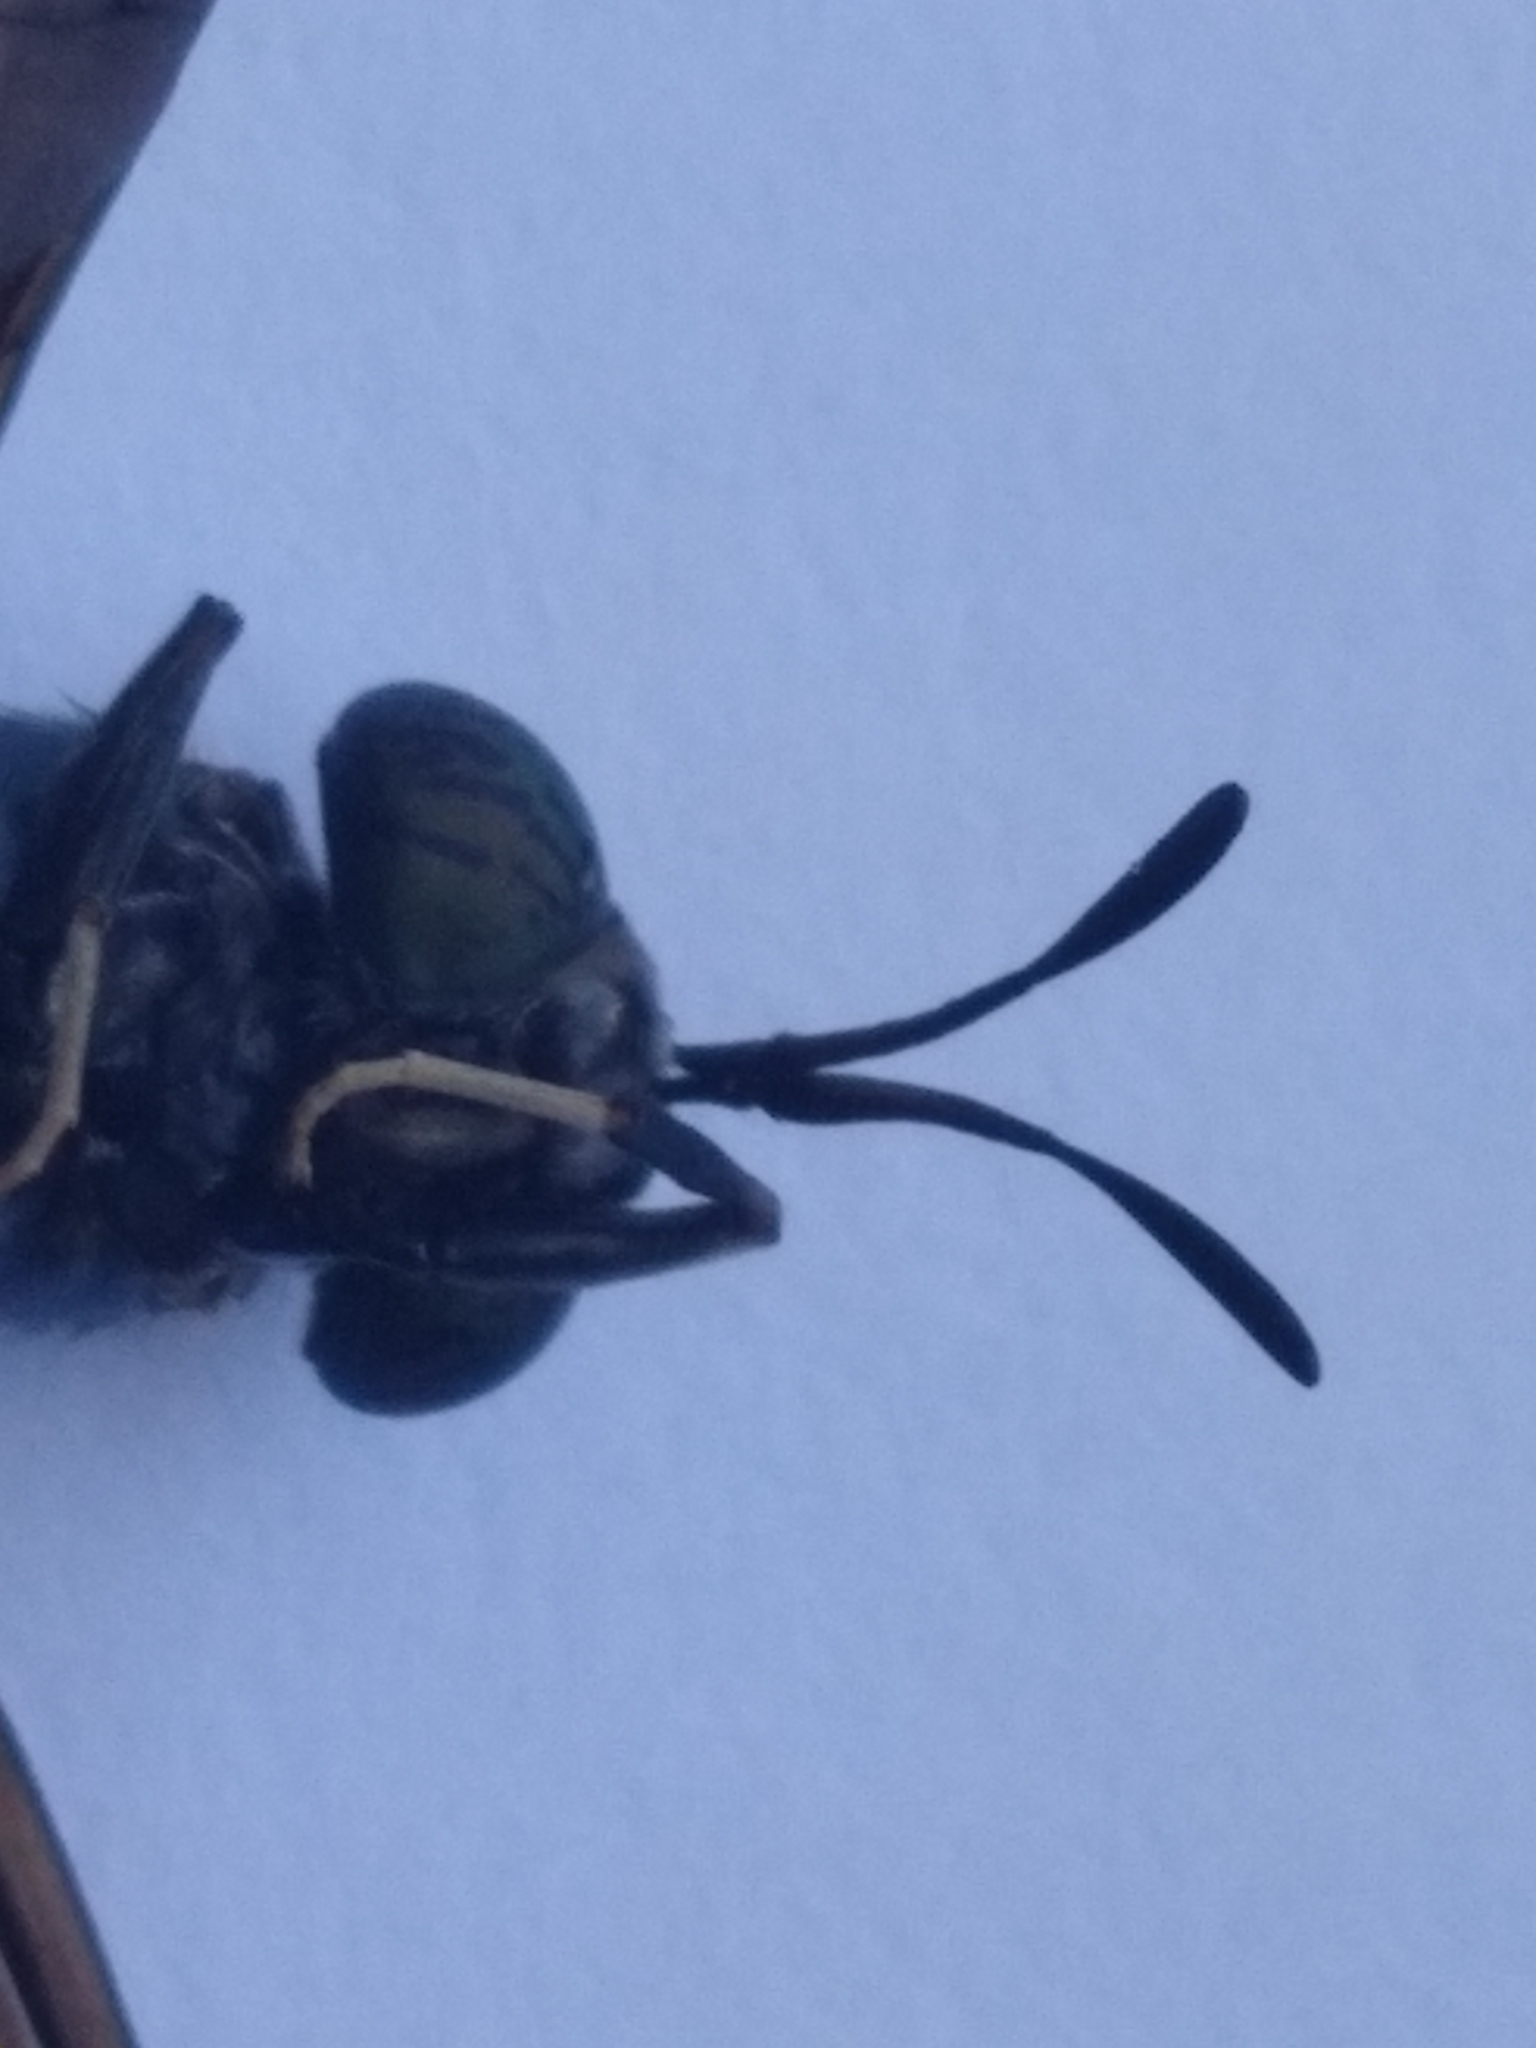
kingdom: Animalia
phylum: Arthropoda
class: Insecta
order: Diptera
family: Stratiomyidae
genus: Hermetia
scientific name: Hermetia illucens
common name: Black soldier fly
